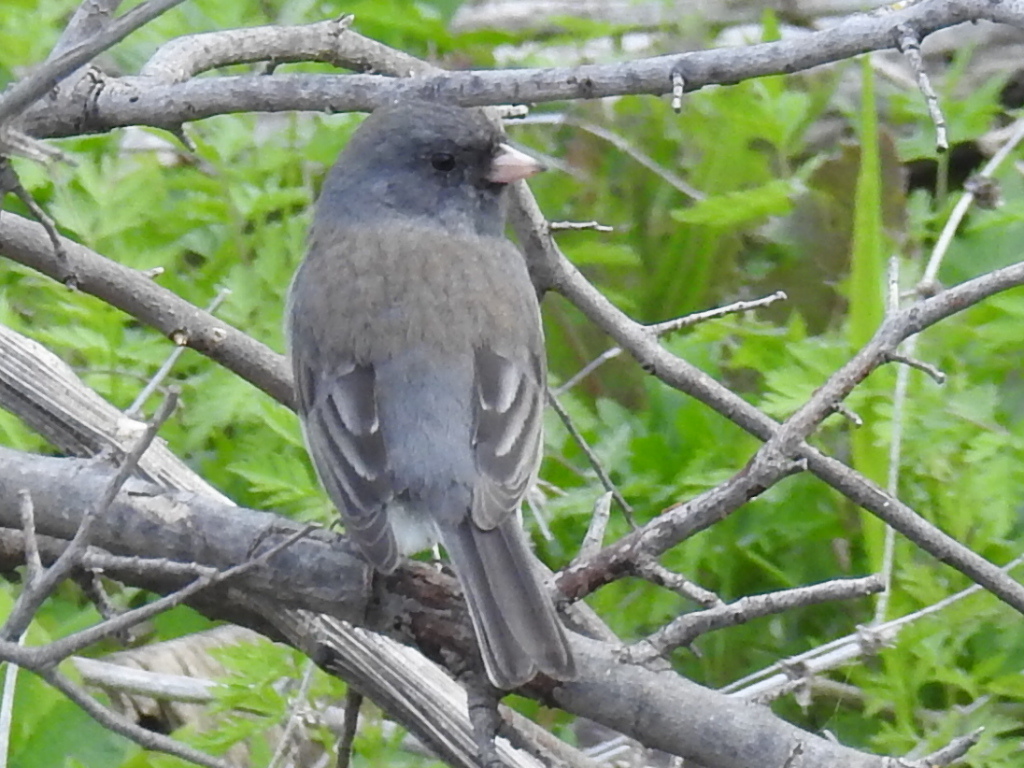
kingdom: Animalia
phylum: Chordata
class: Aves
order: Passeriformes
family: Passerellidae
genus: Junco
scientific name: Junco hyemalis
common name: Dark-eyed junco
